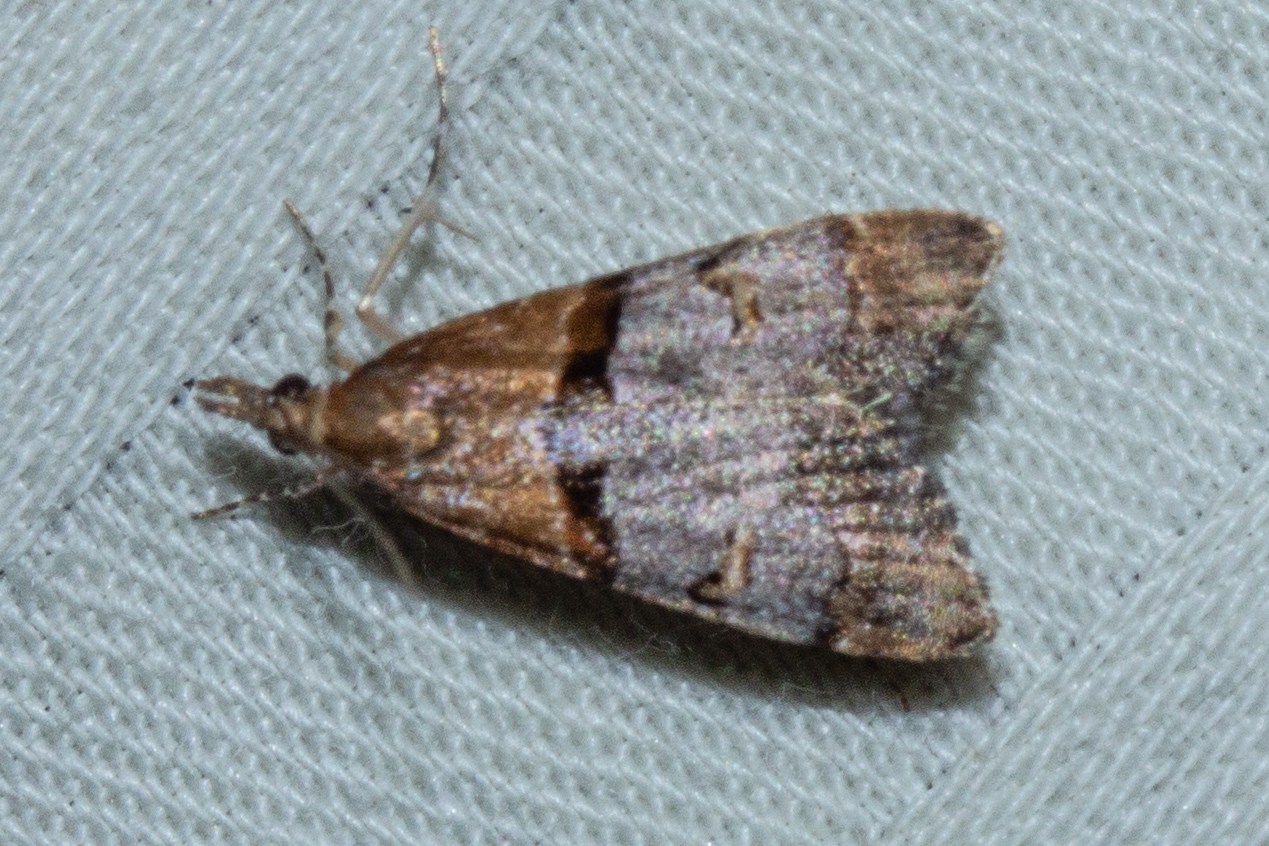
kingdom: Animalia
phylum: Arthropoda
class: Insecta
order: Lepidoptera
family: Crambidae
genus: Antiscopa
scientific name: Antiscopa epicomia
